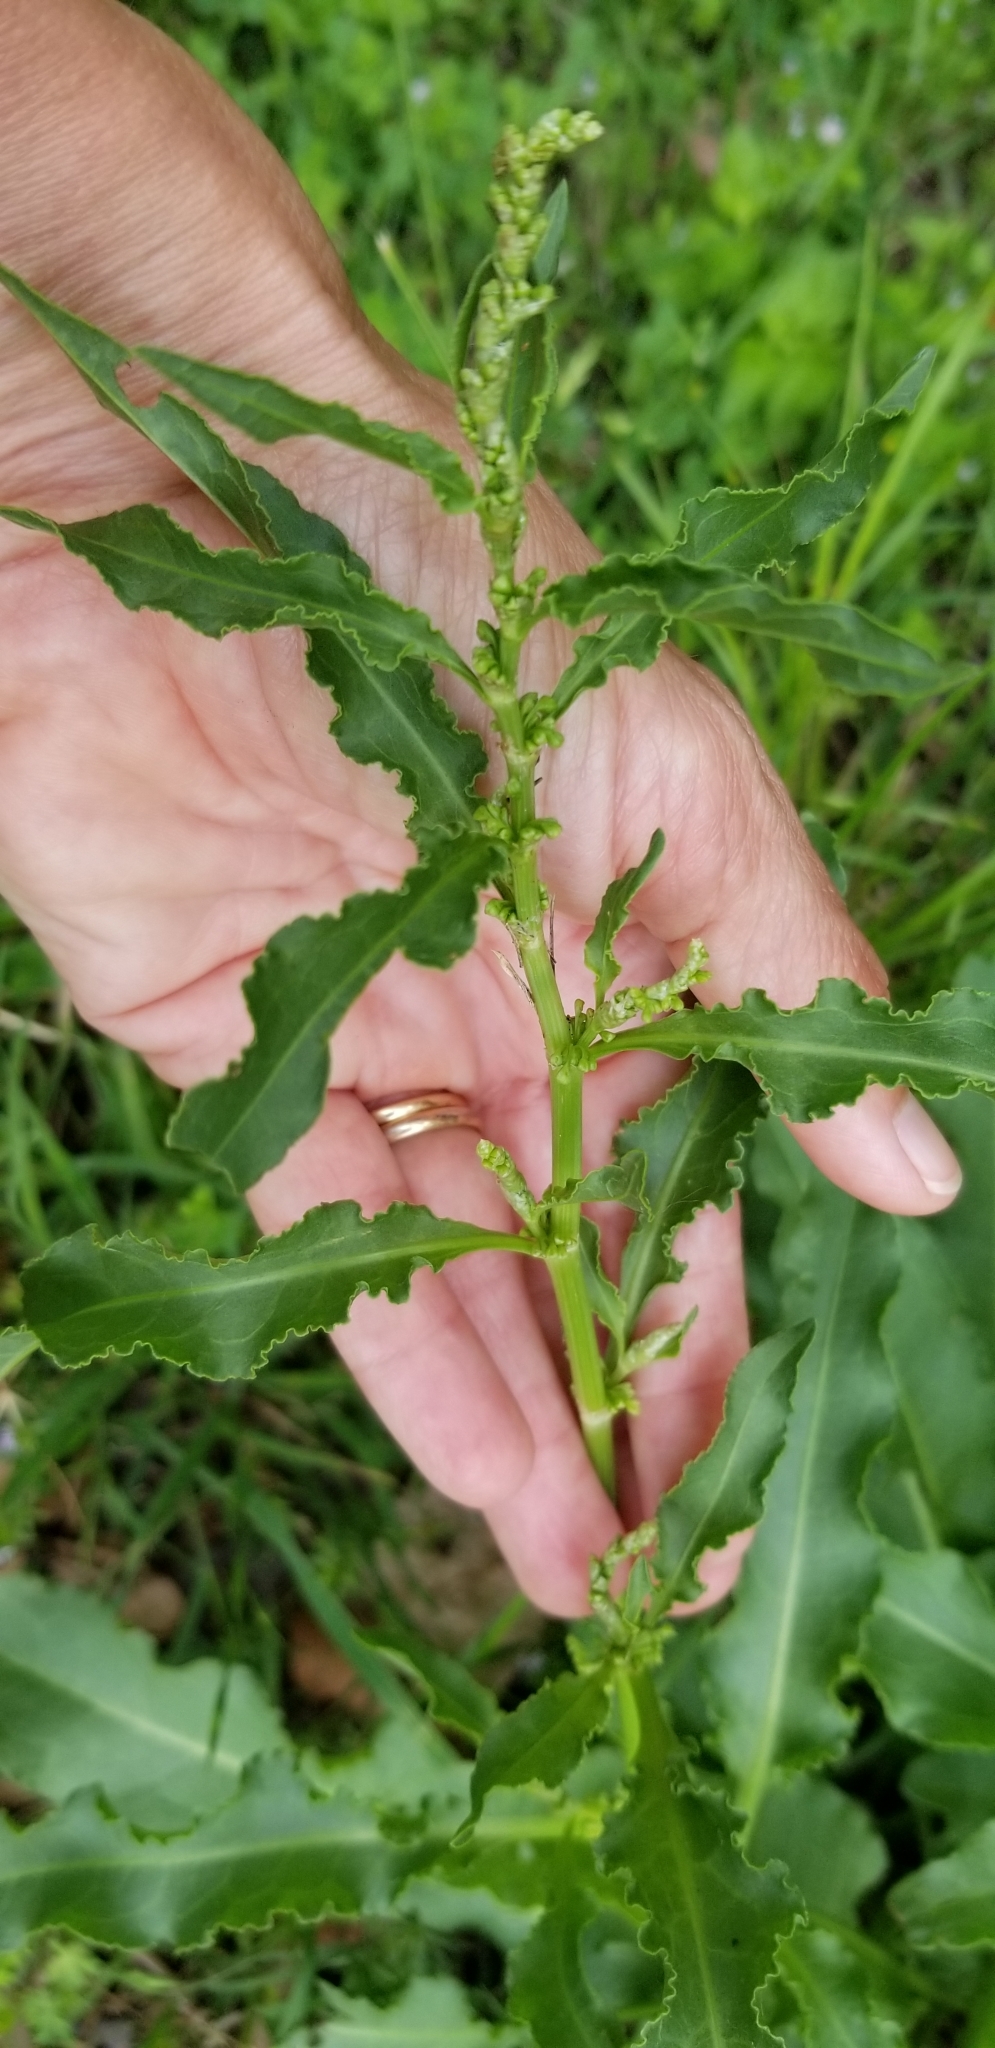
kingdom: Plantae
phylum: Tracheophyta
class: Magnoliopsida
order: Caryophyllales
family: Polygonaceae
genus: Rumex
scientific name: Rumex crispus
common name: Curled dock
